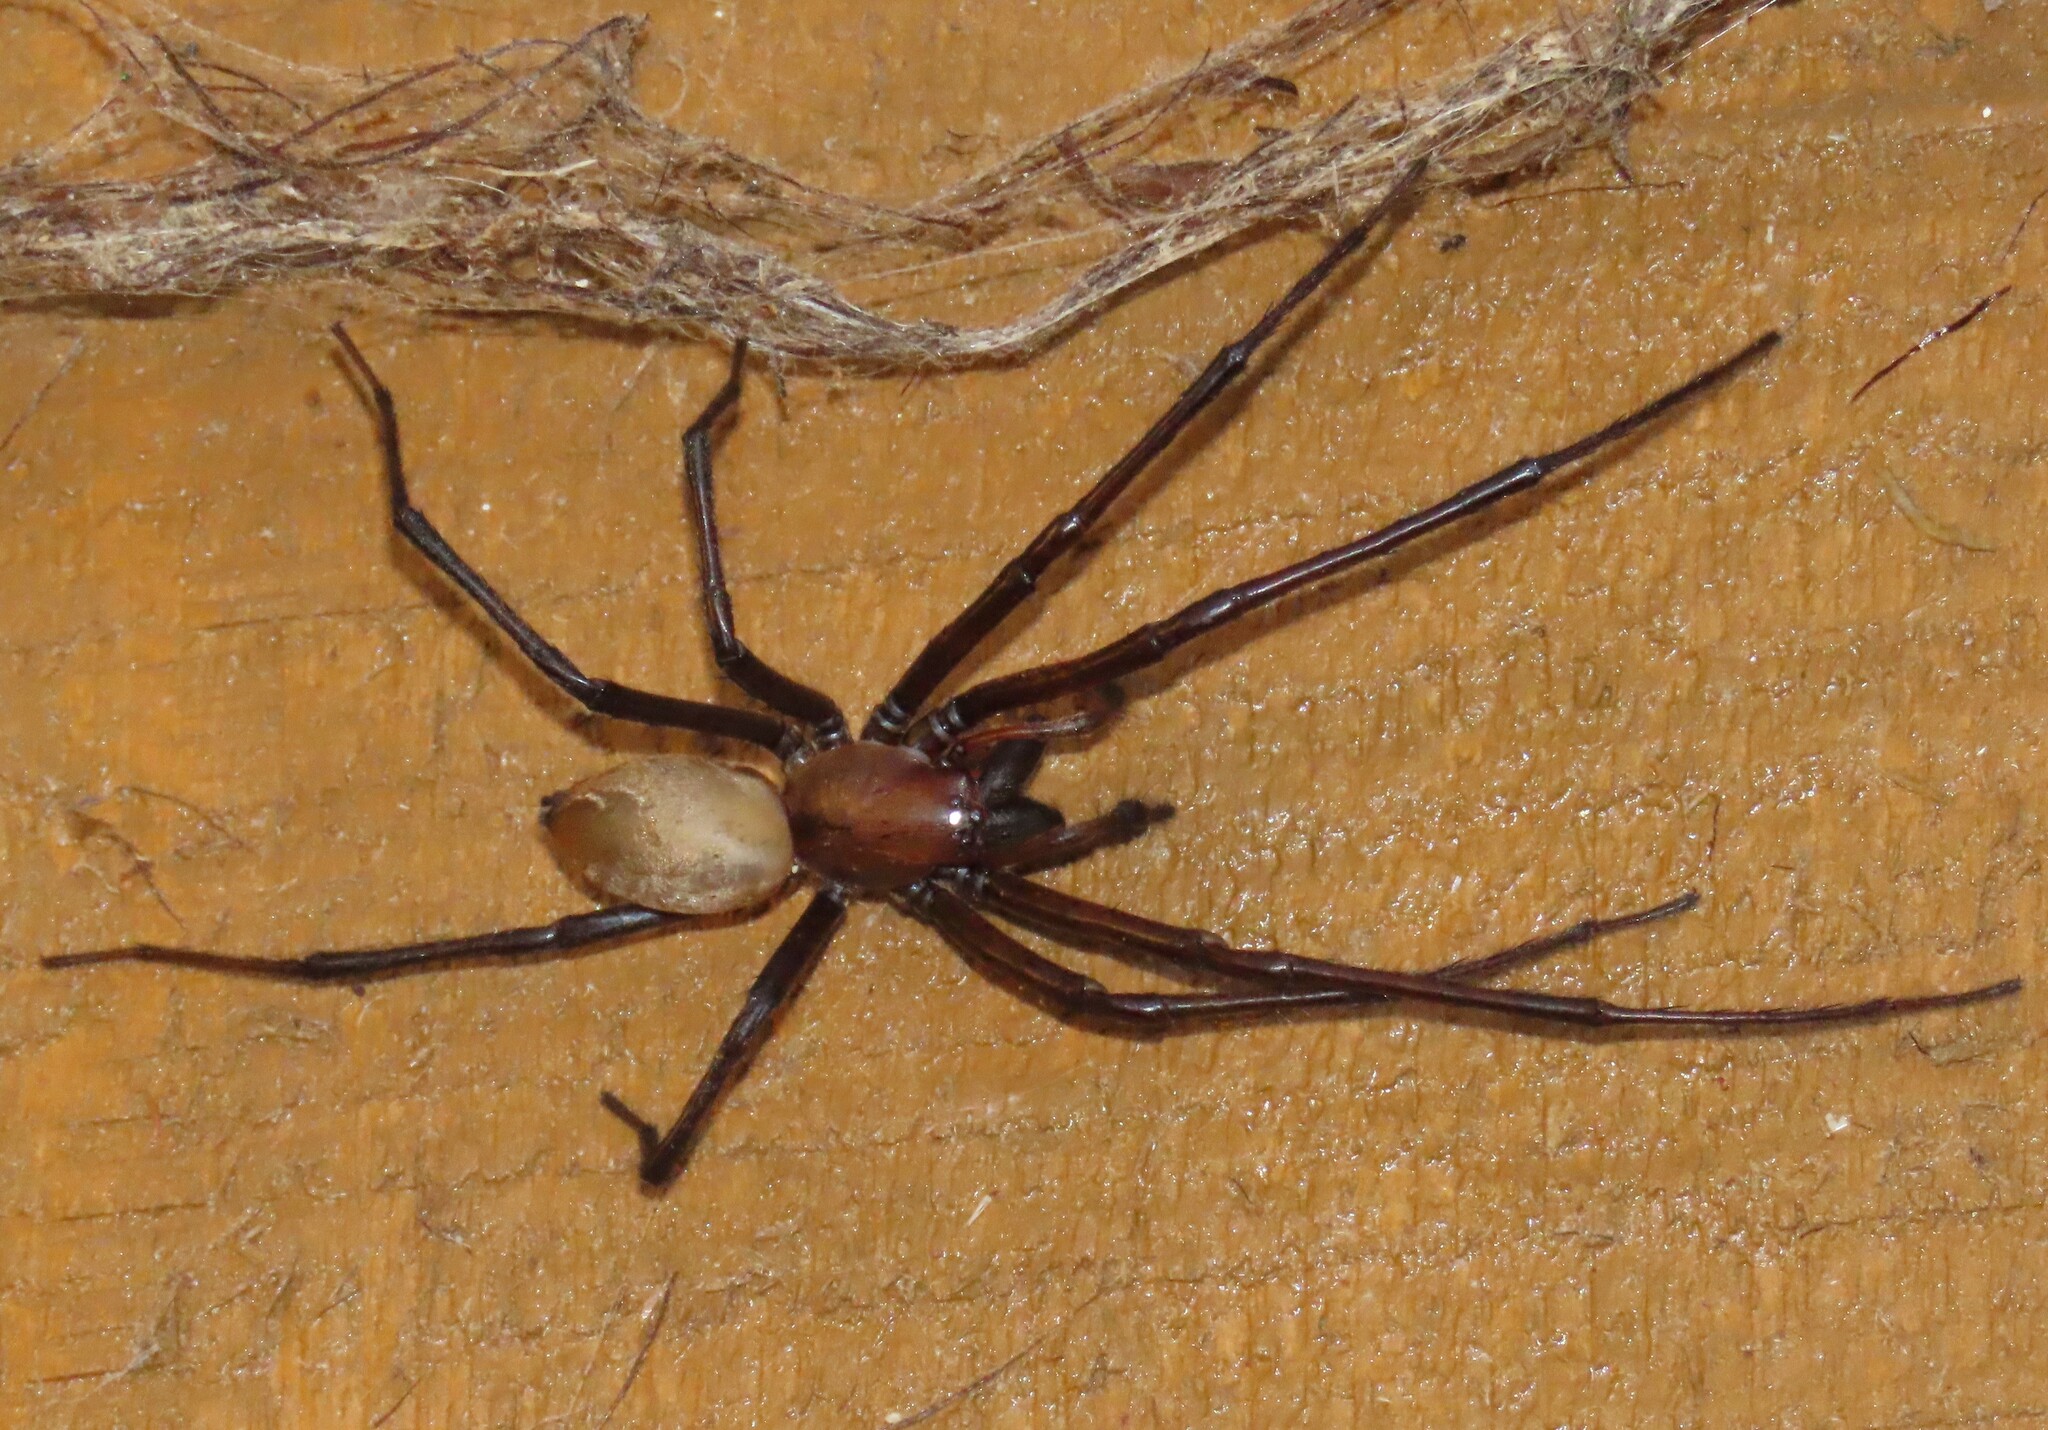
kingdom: Animalia
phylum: Arthropoda
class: Arachnida
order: Araneae
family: Desidae
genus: Cambridgea
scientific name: Cambridgea foliata
